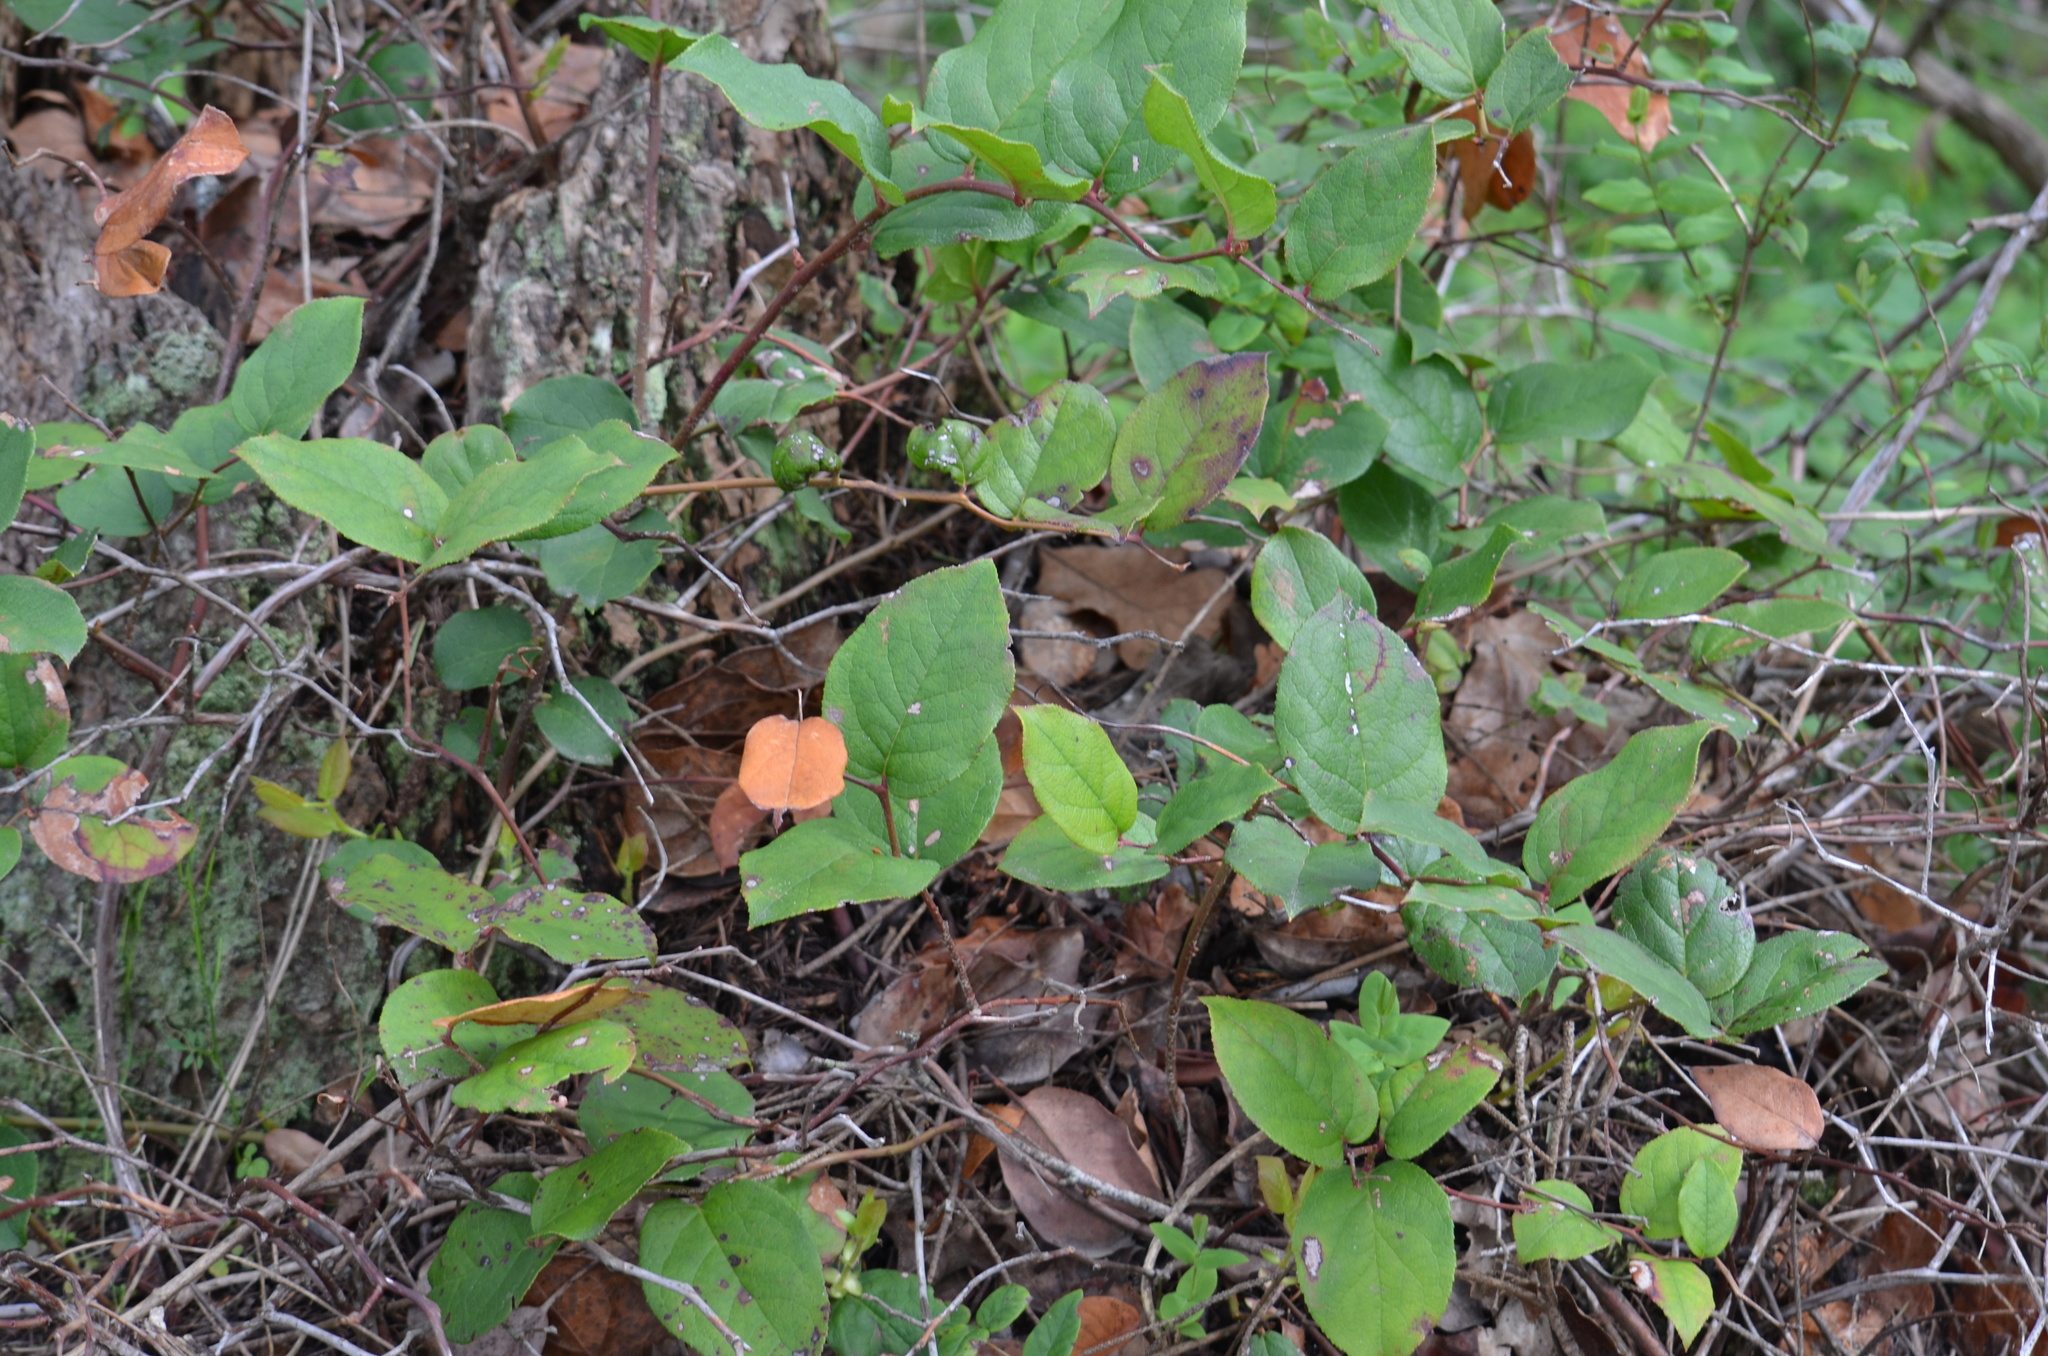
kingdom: Plantae
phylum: Tracheophyta
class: Magnoliopsida
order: Ericales
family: Ericaceae
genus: Gaultheria
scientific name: Gaultheria shallon
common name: Shallon
